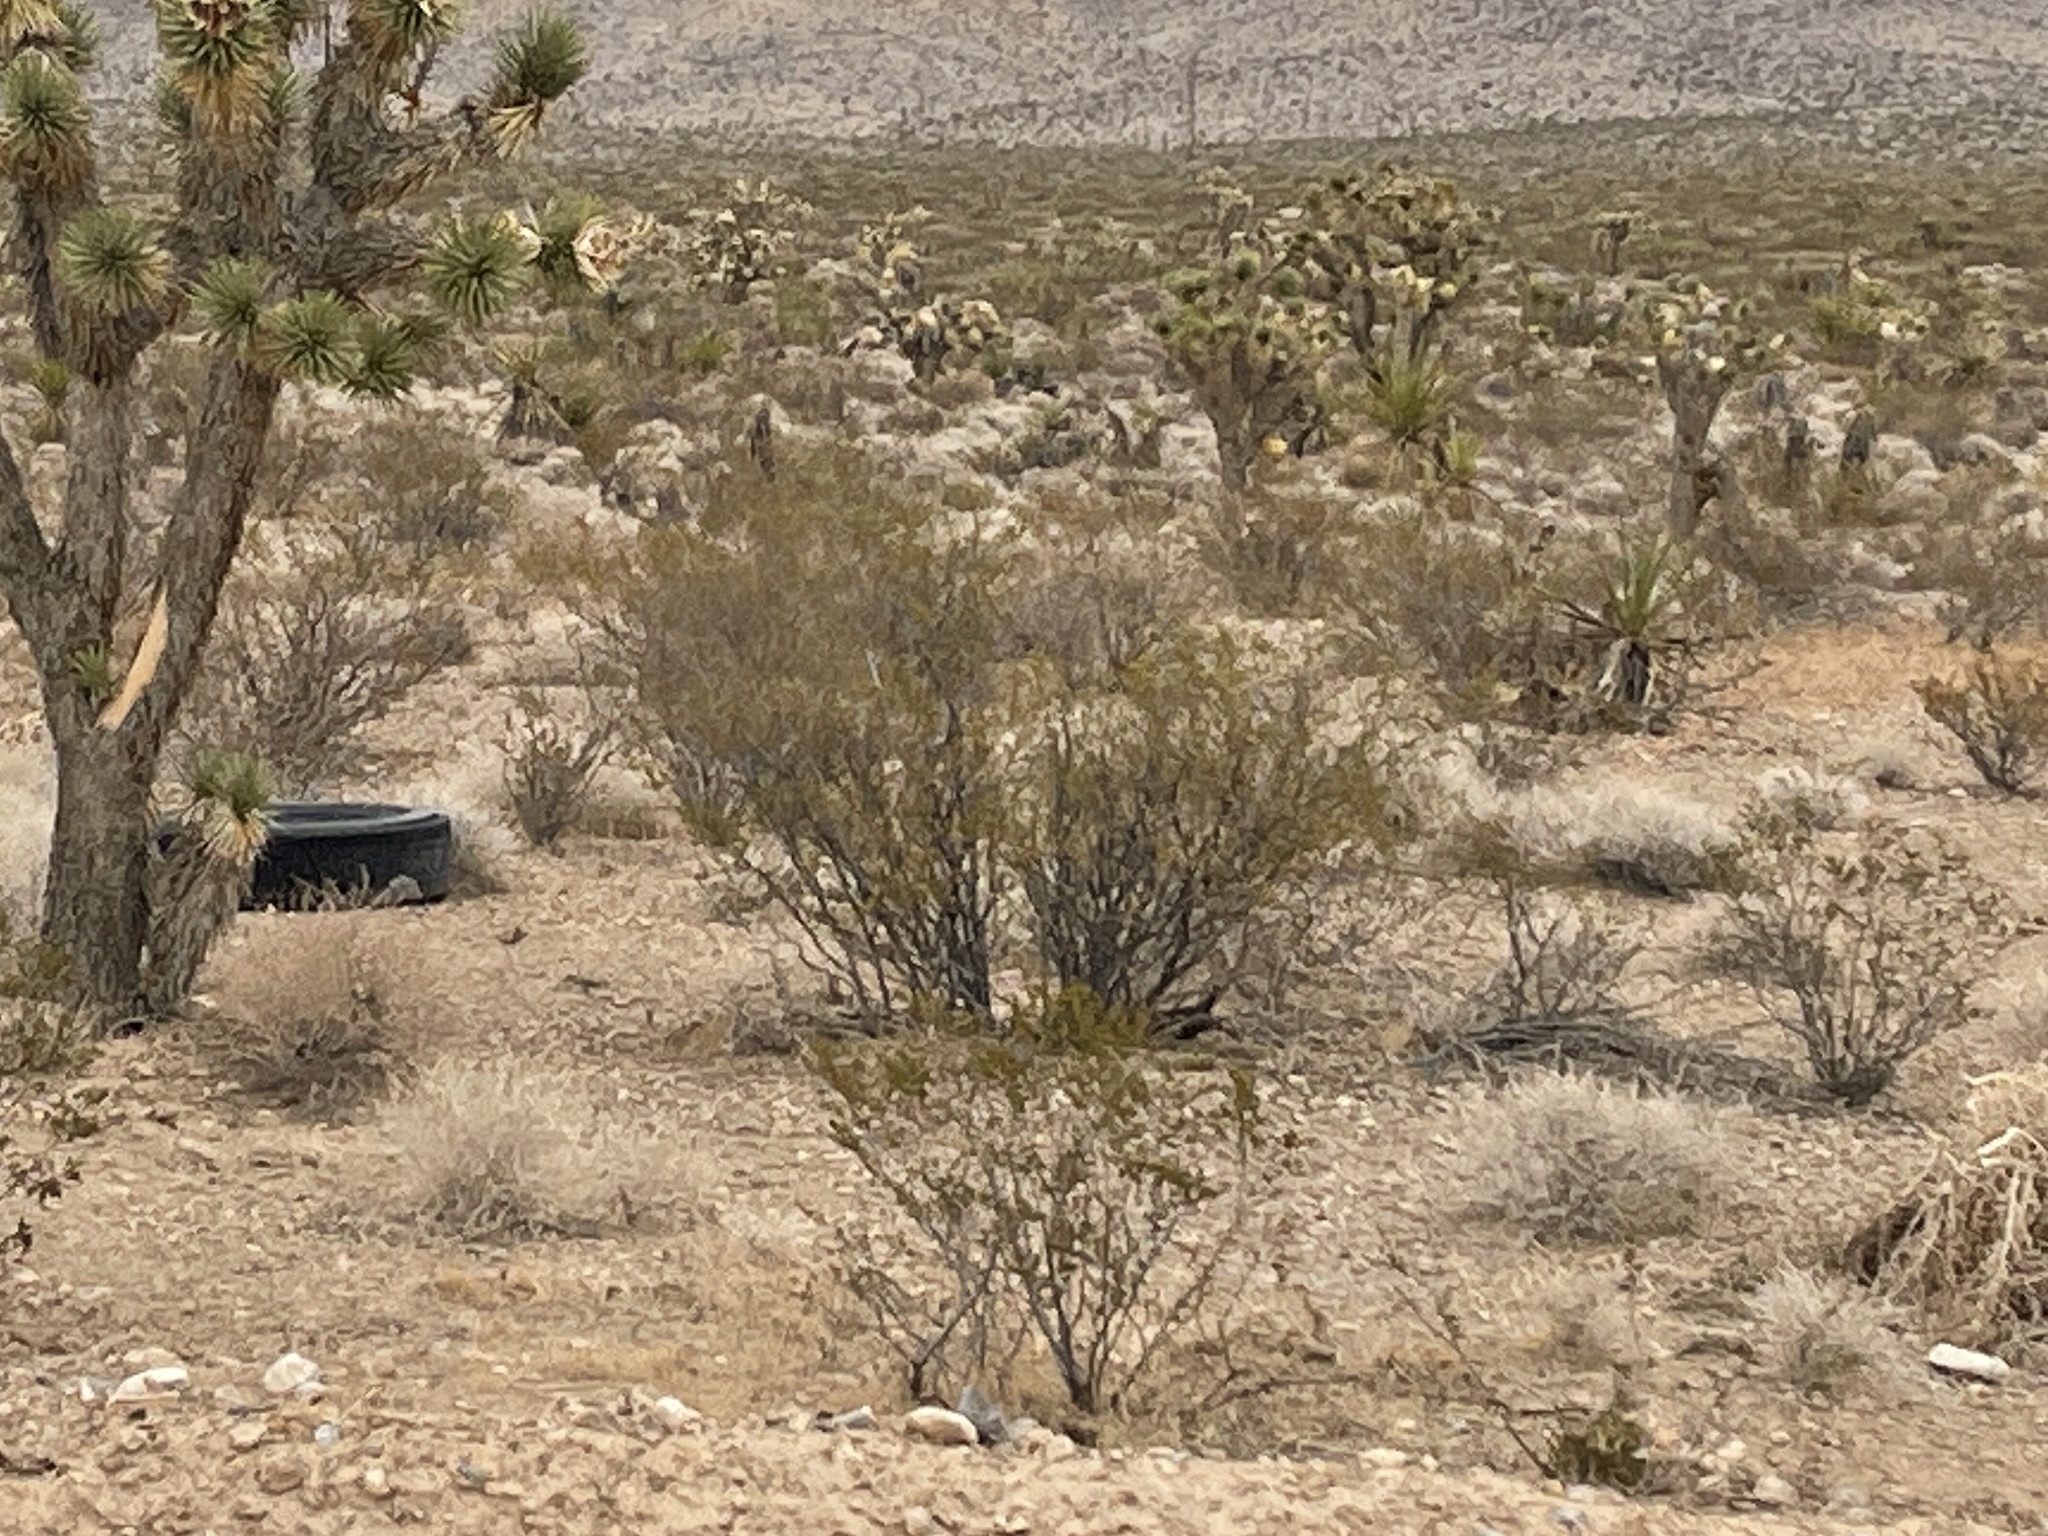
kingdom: Plantae
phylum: Tracheophyta
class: Magnoliopsida
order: Zygophyllales
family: Zygophyllaceae
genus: Larrea
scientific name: Larrea tridentata
